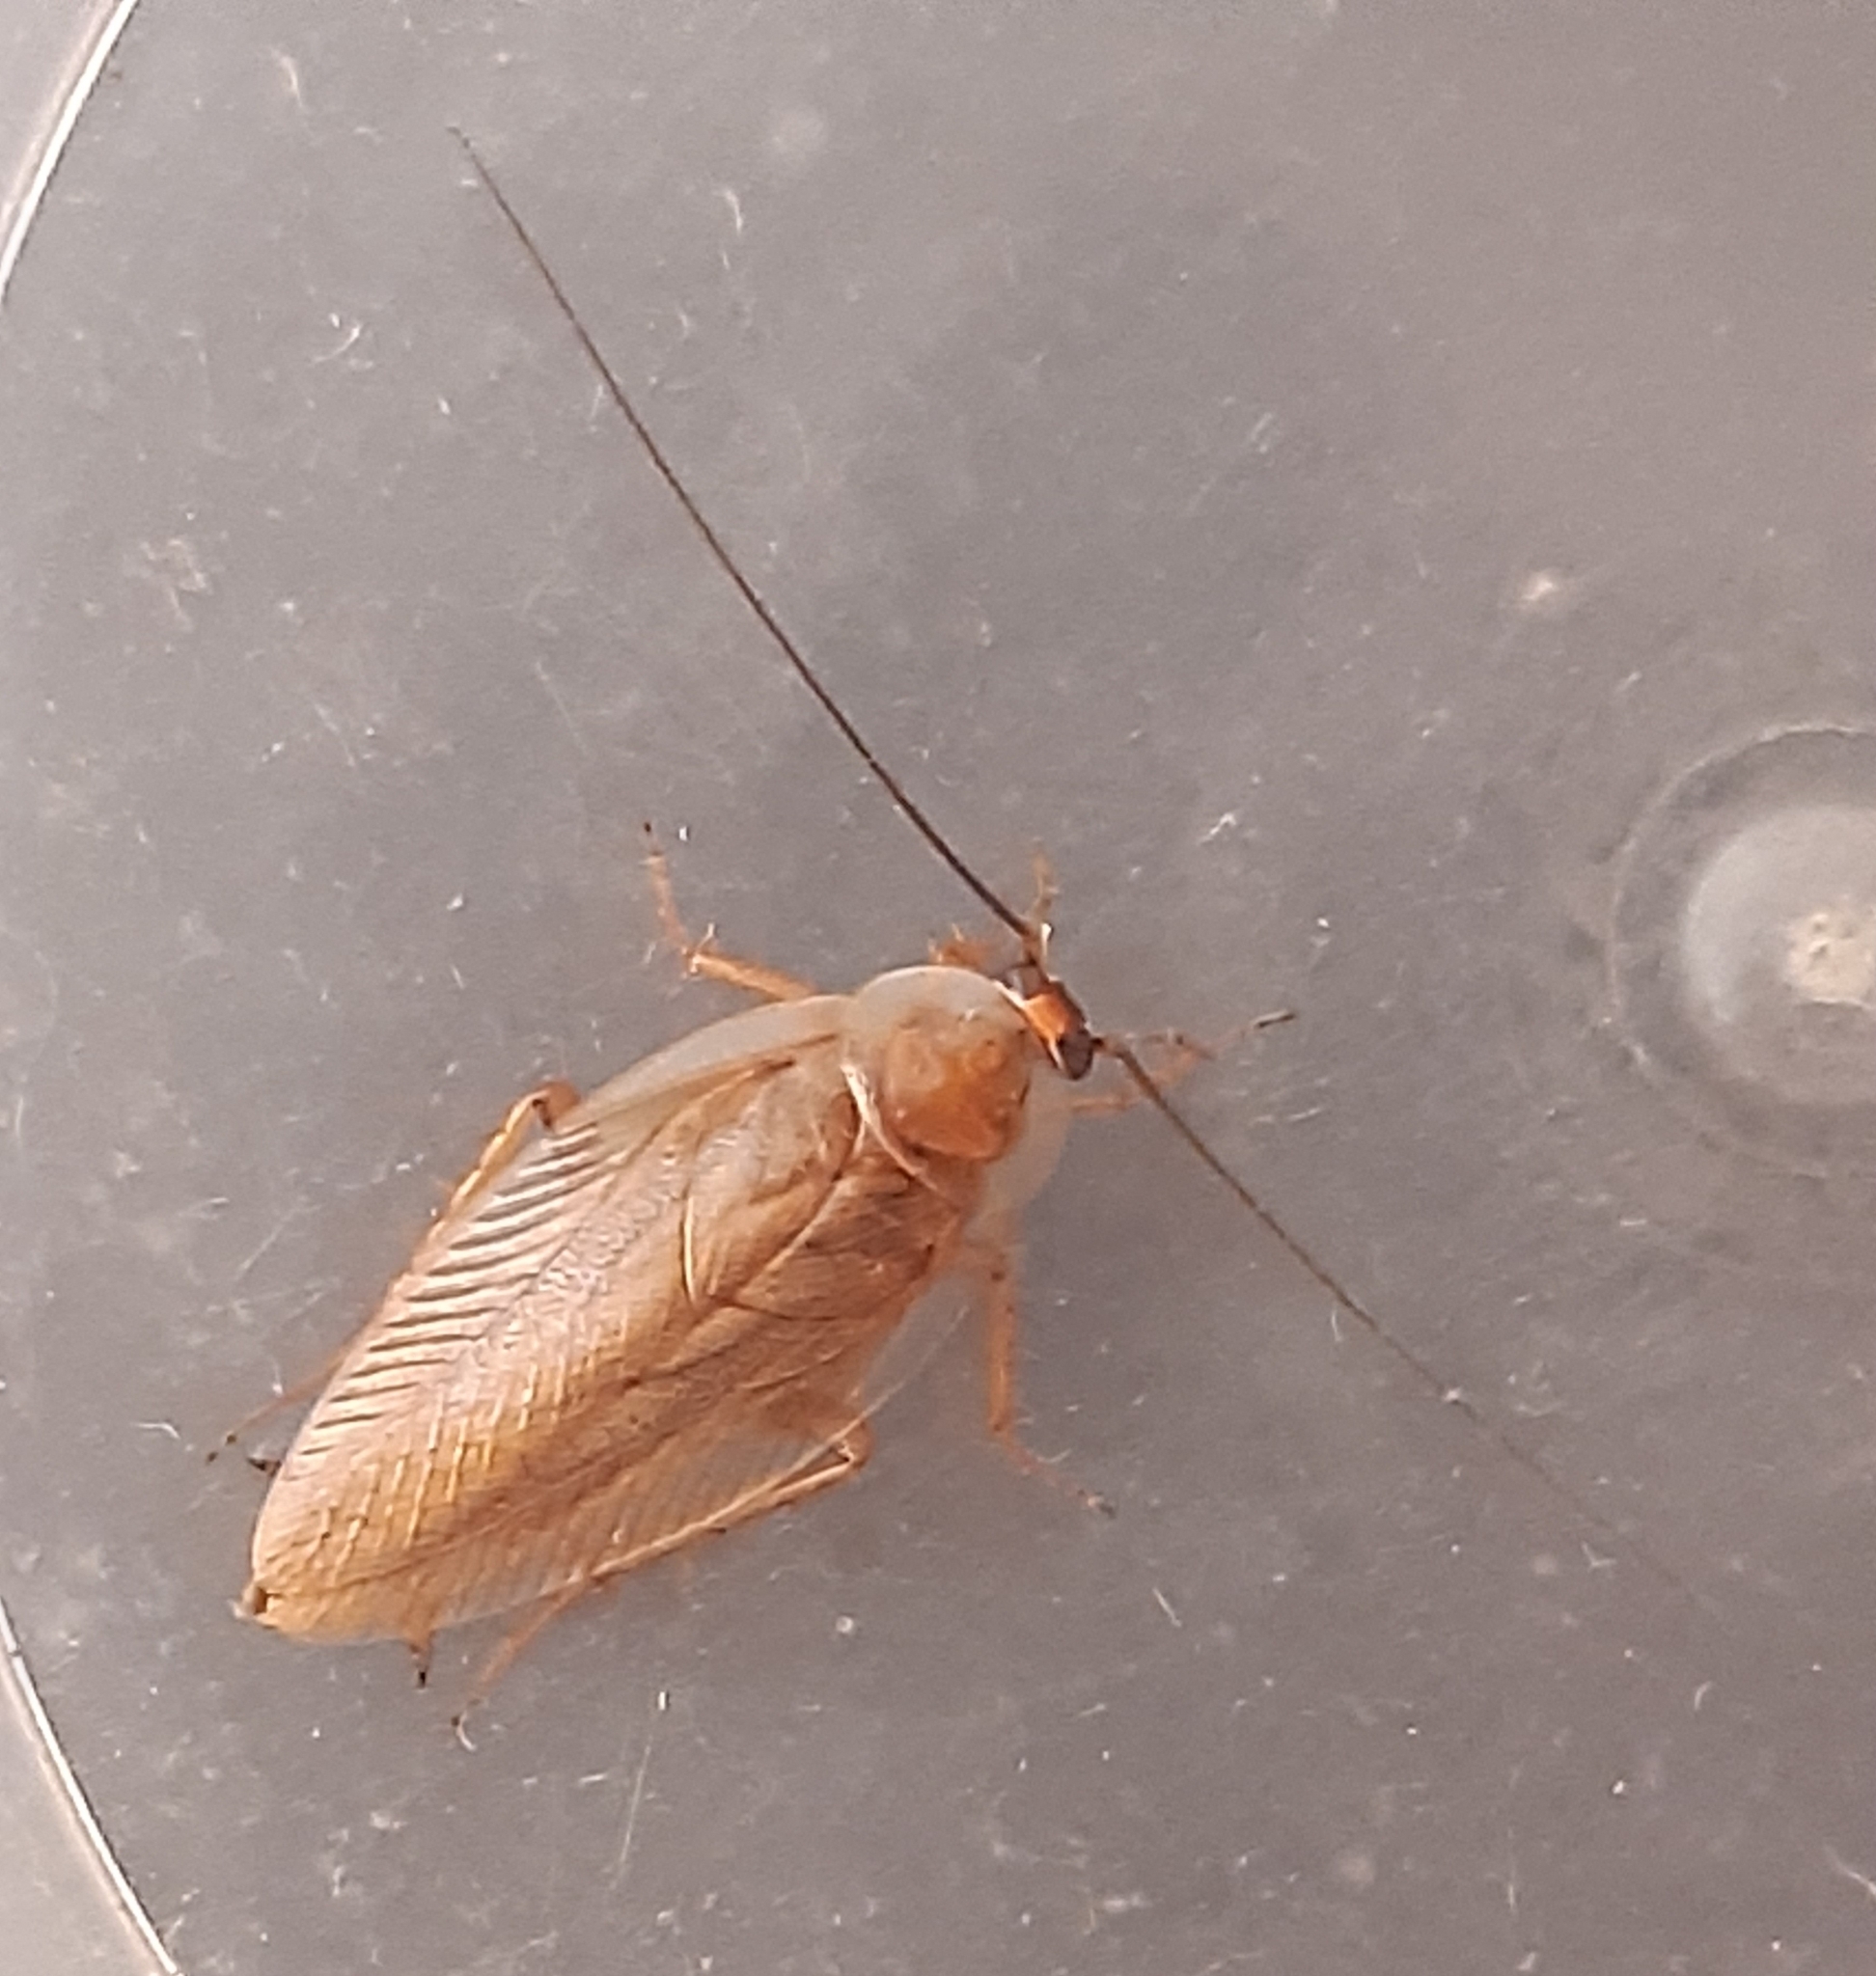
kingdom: Animalia
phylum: Arthropoda
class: Insecta
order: Blattodea
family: Ectobiidae
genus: Ectobius
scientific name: Ectobius vittiventris
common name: Garden cockroach
